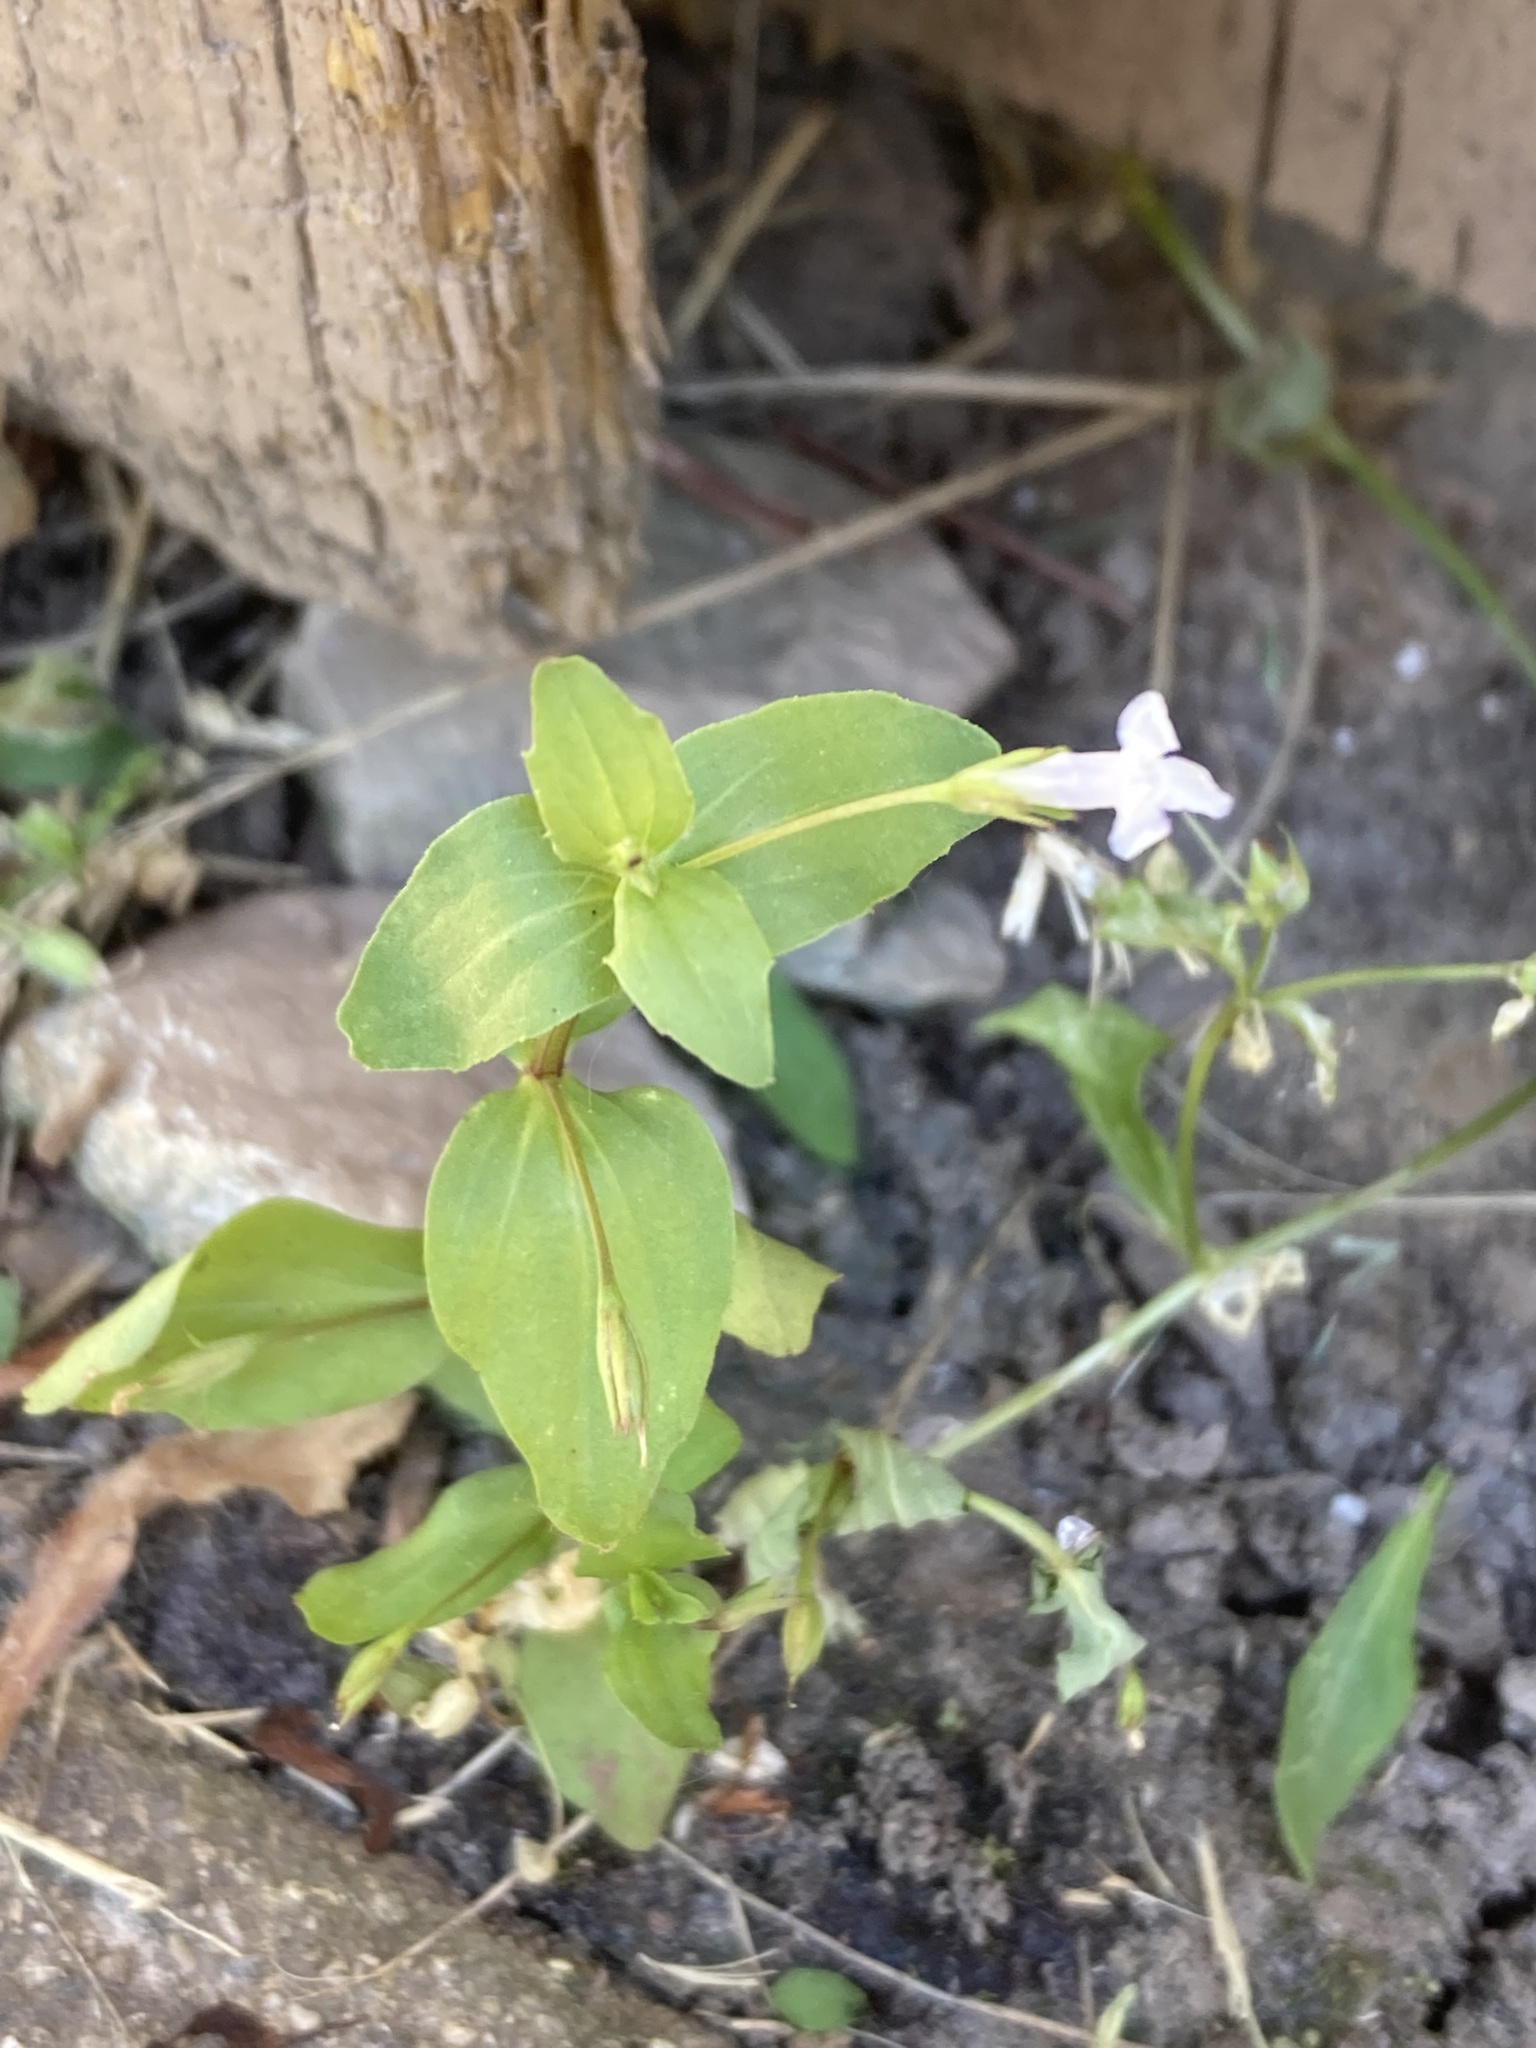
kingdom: Plantae
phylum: Tracheophyta
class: Magnoliopsida
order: Lamiales
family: Linderniaceae
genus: Lindernia
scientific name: Lindernia dubia
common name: Annual false pimpernel
